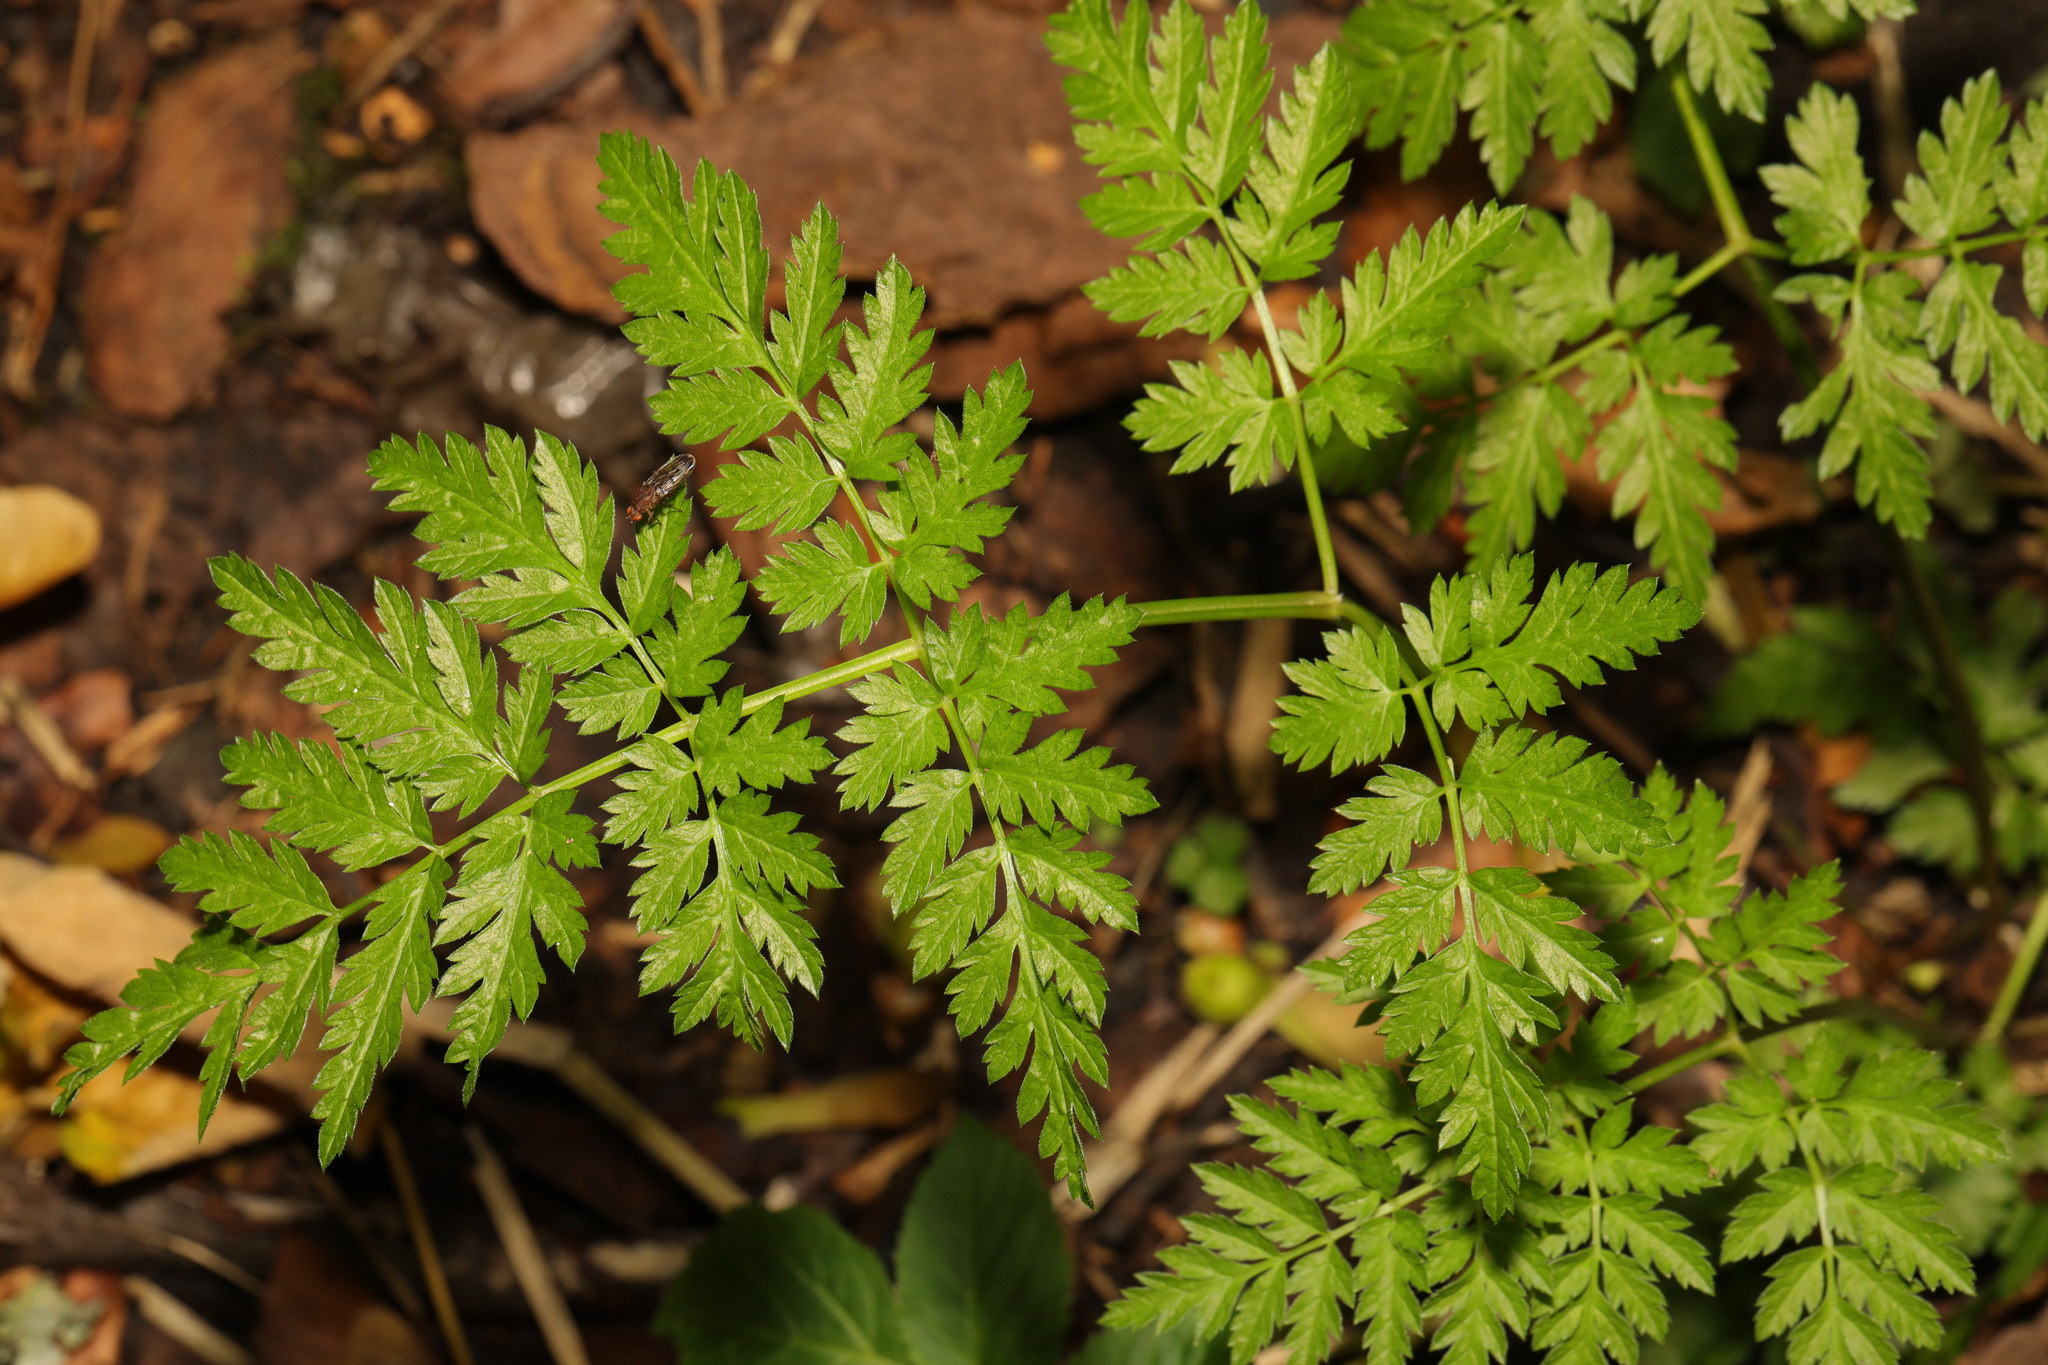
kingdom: Plantae
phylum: Tracheophyta
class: Magnoliopsida
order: Apiales
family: Apiaceae
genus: Anthriscus
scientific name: Anthriscus sylvestris
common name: Cow parsley
